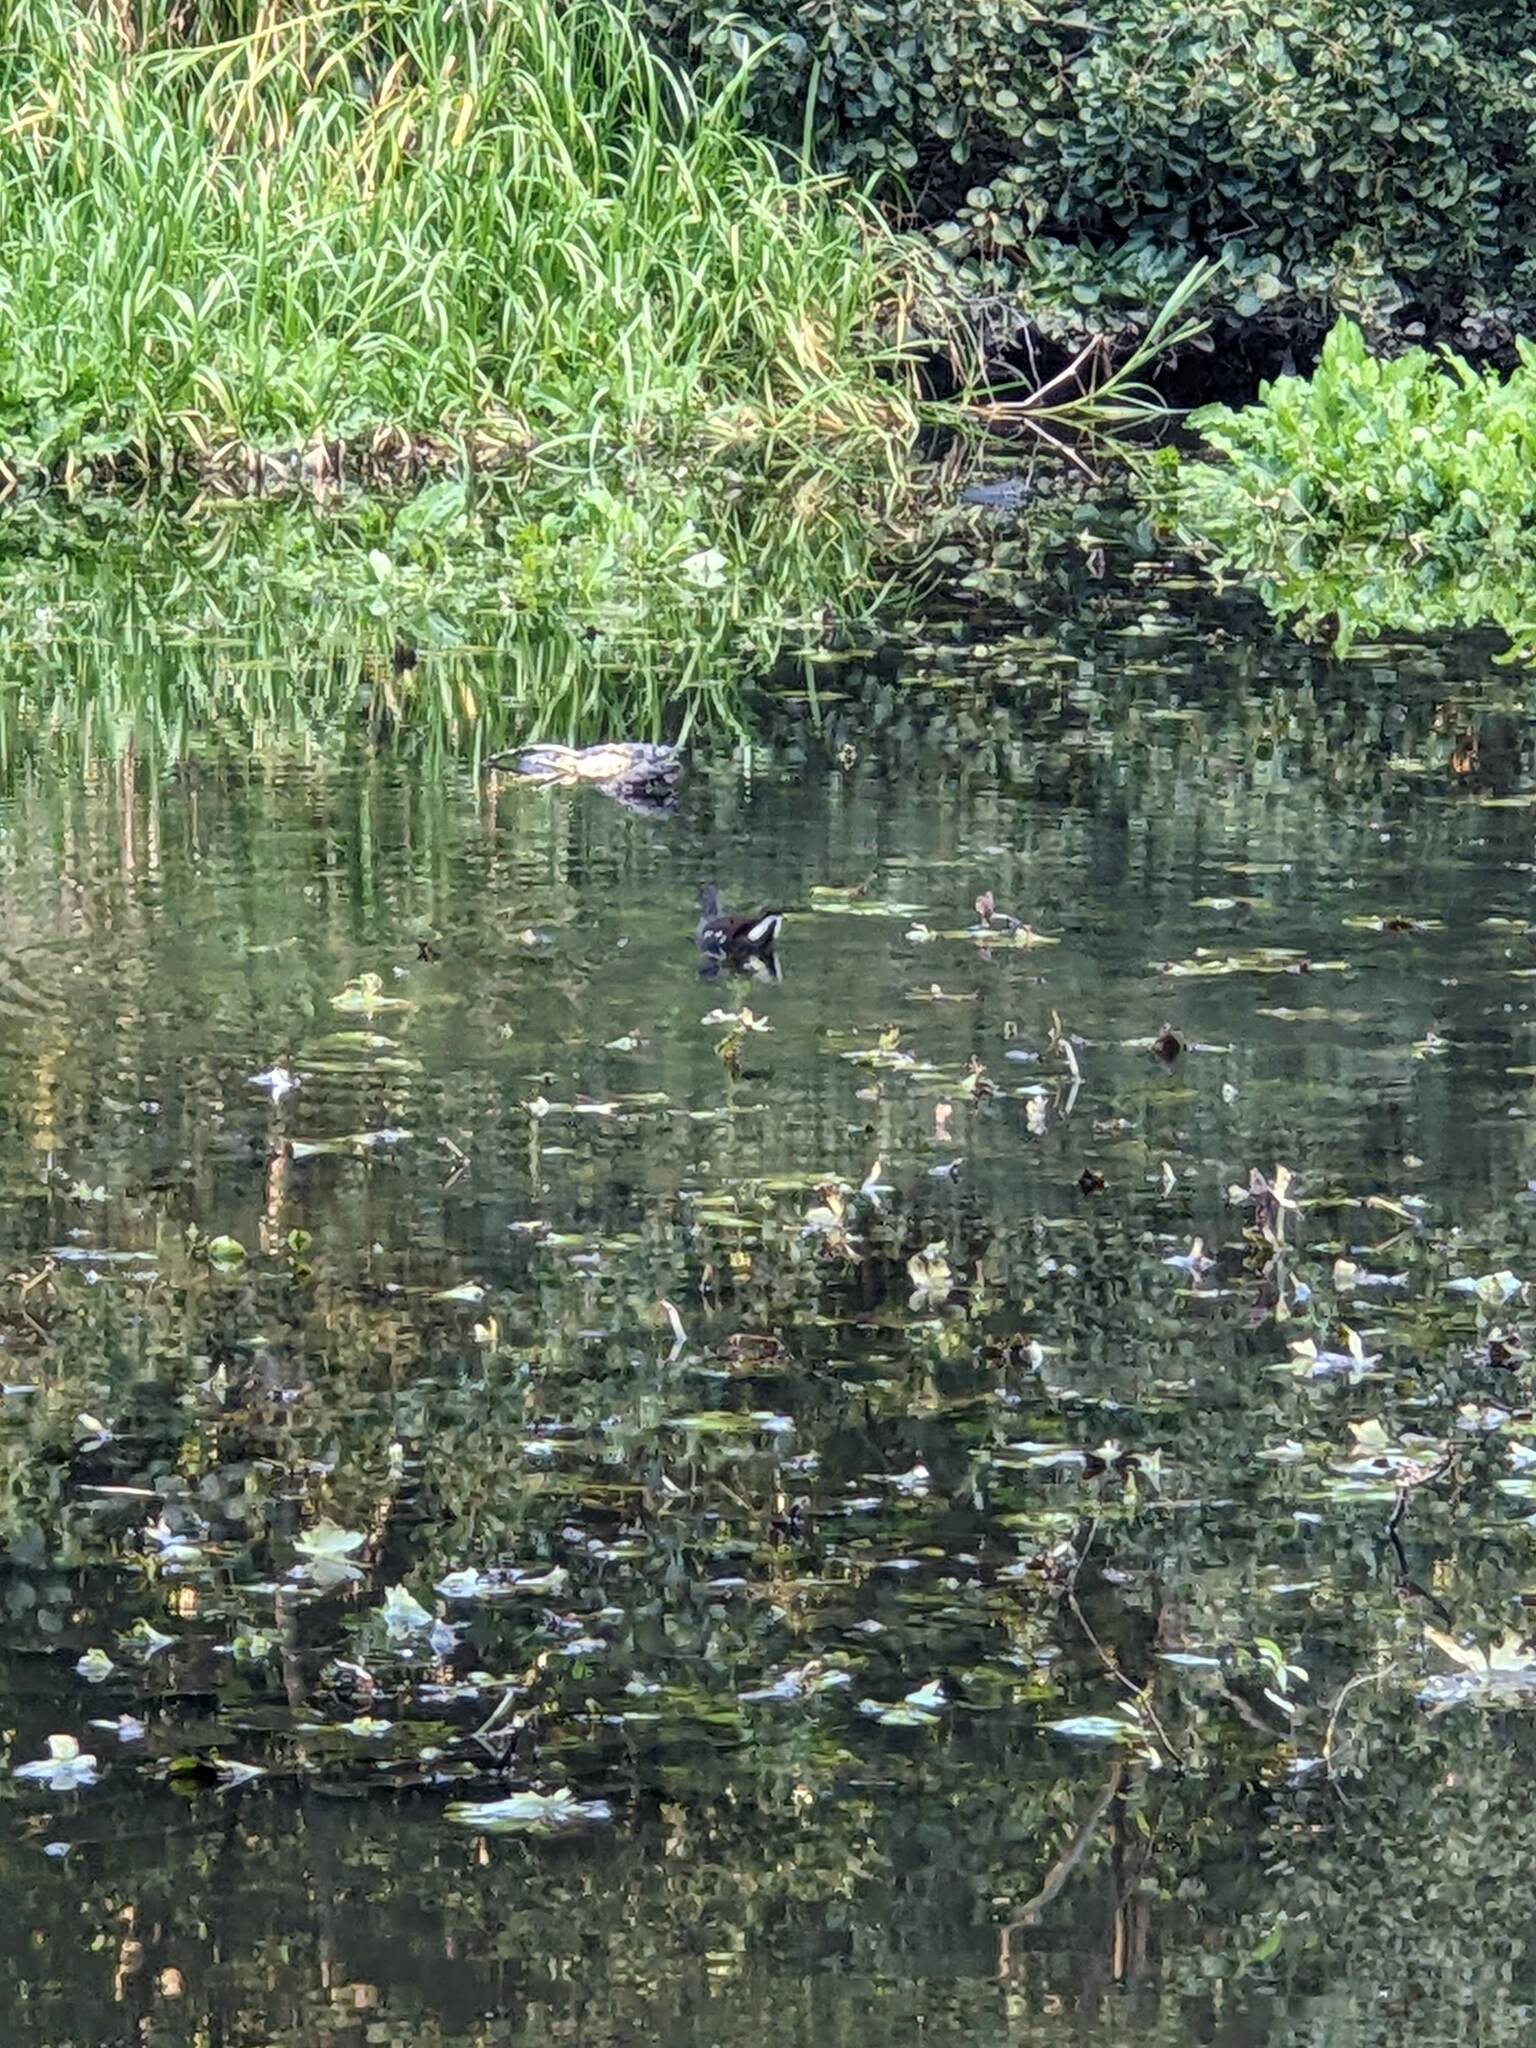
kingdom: Animalia
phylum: Chordata
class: Aves
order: Gruiformes
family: Rallidae
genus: Gallinula
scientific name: Gallinula chloropus
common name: Common moorhen
